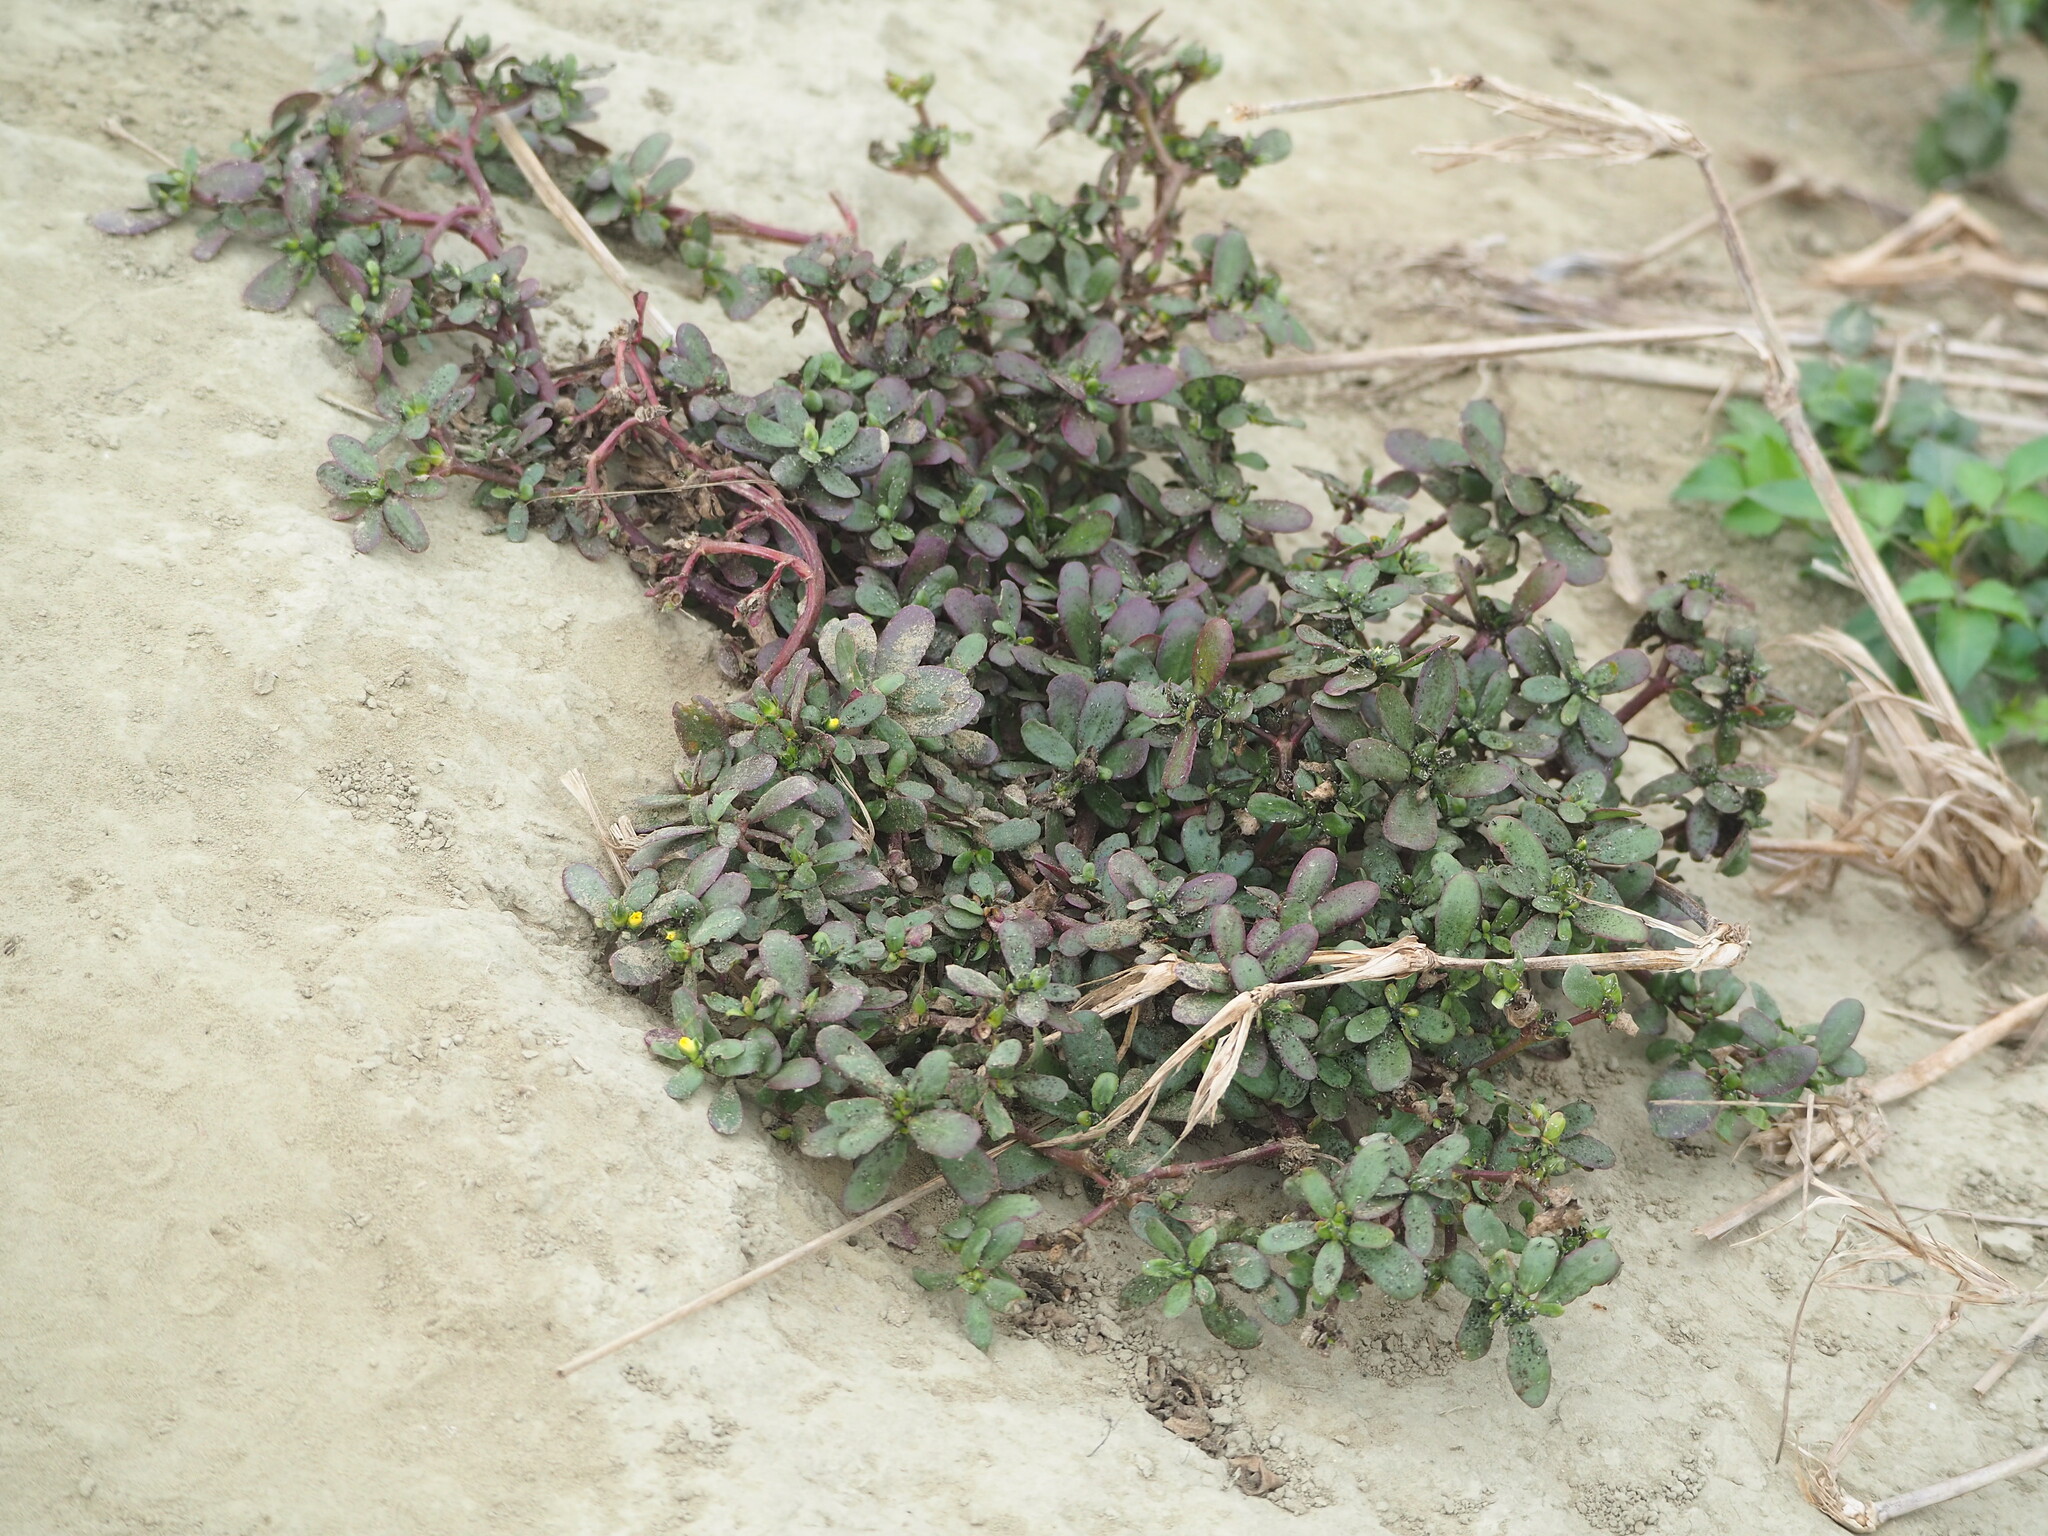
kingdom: Plantae
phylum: Tracheophyta
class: Magnoliopsida
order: Caryophyllales
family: Portulacaceae
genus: Portulaca
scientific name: Portulaca oleracea
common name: Common purslane
